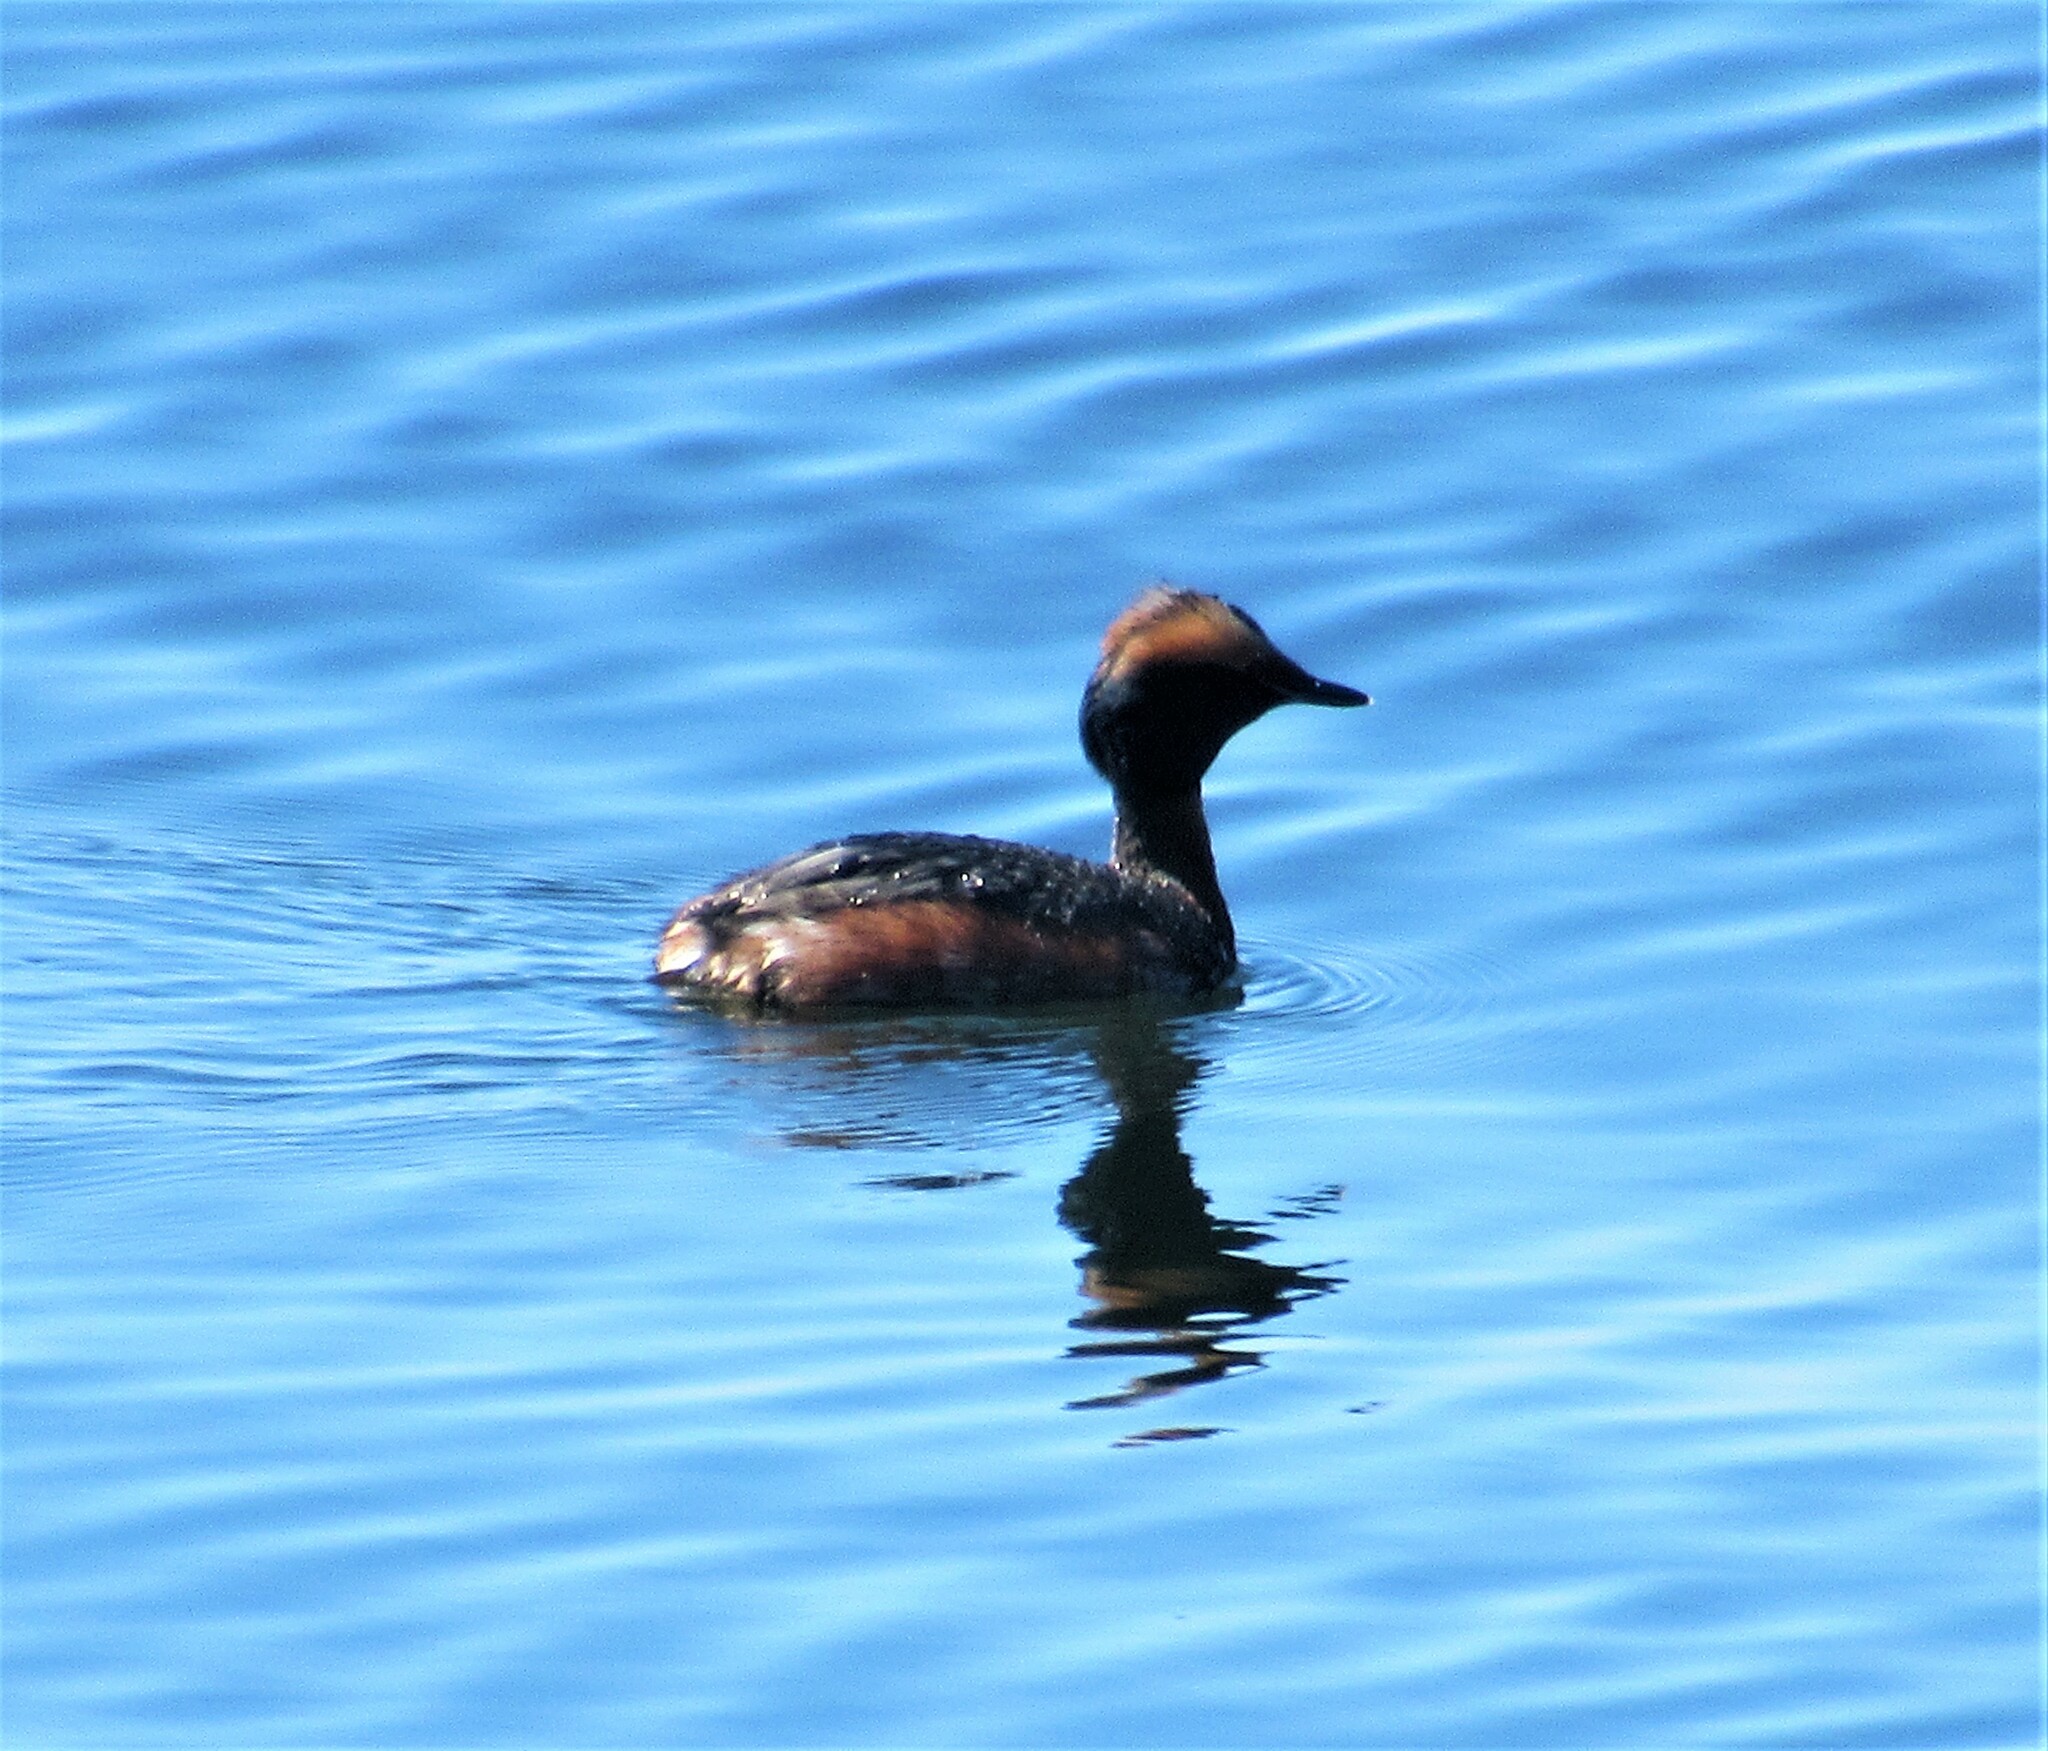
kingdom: Animalia
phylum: Chordata
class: Aves
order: Podicipediformes
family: Podicipedidae
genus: Podiceps
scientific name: Podiceps auritus
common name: Horned grebe
